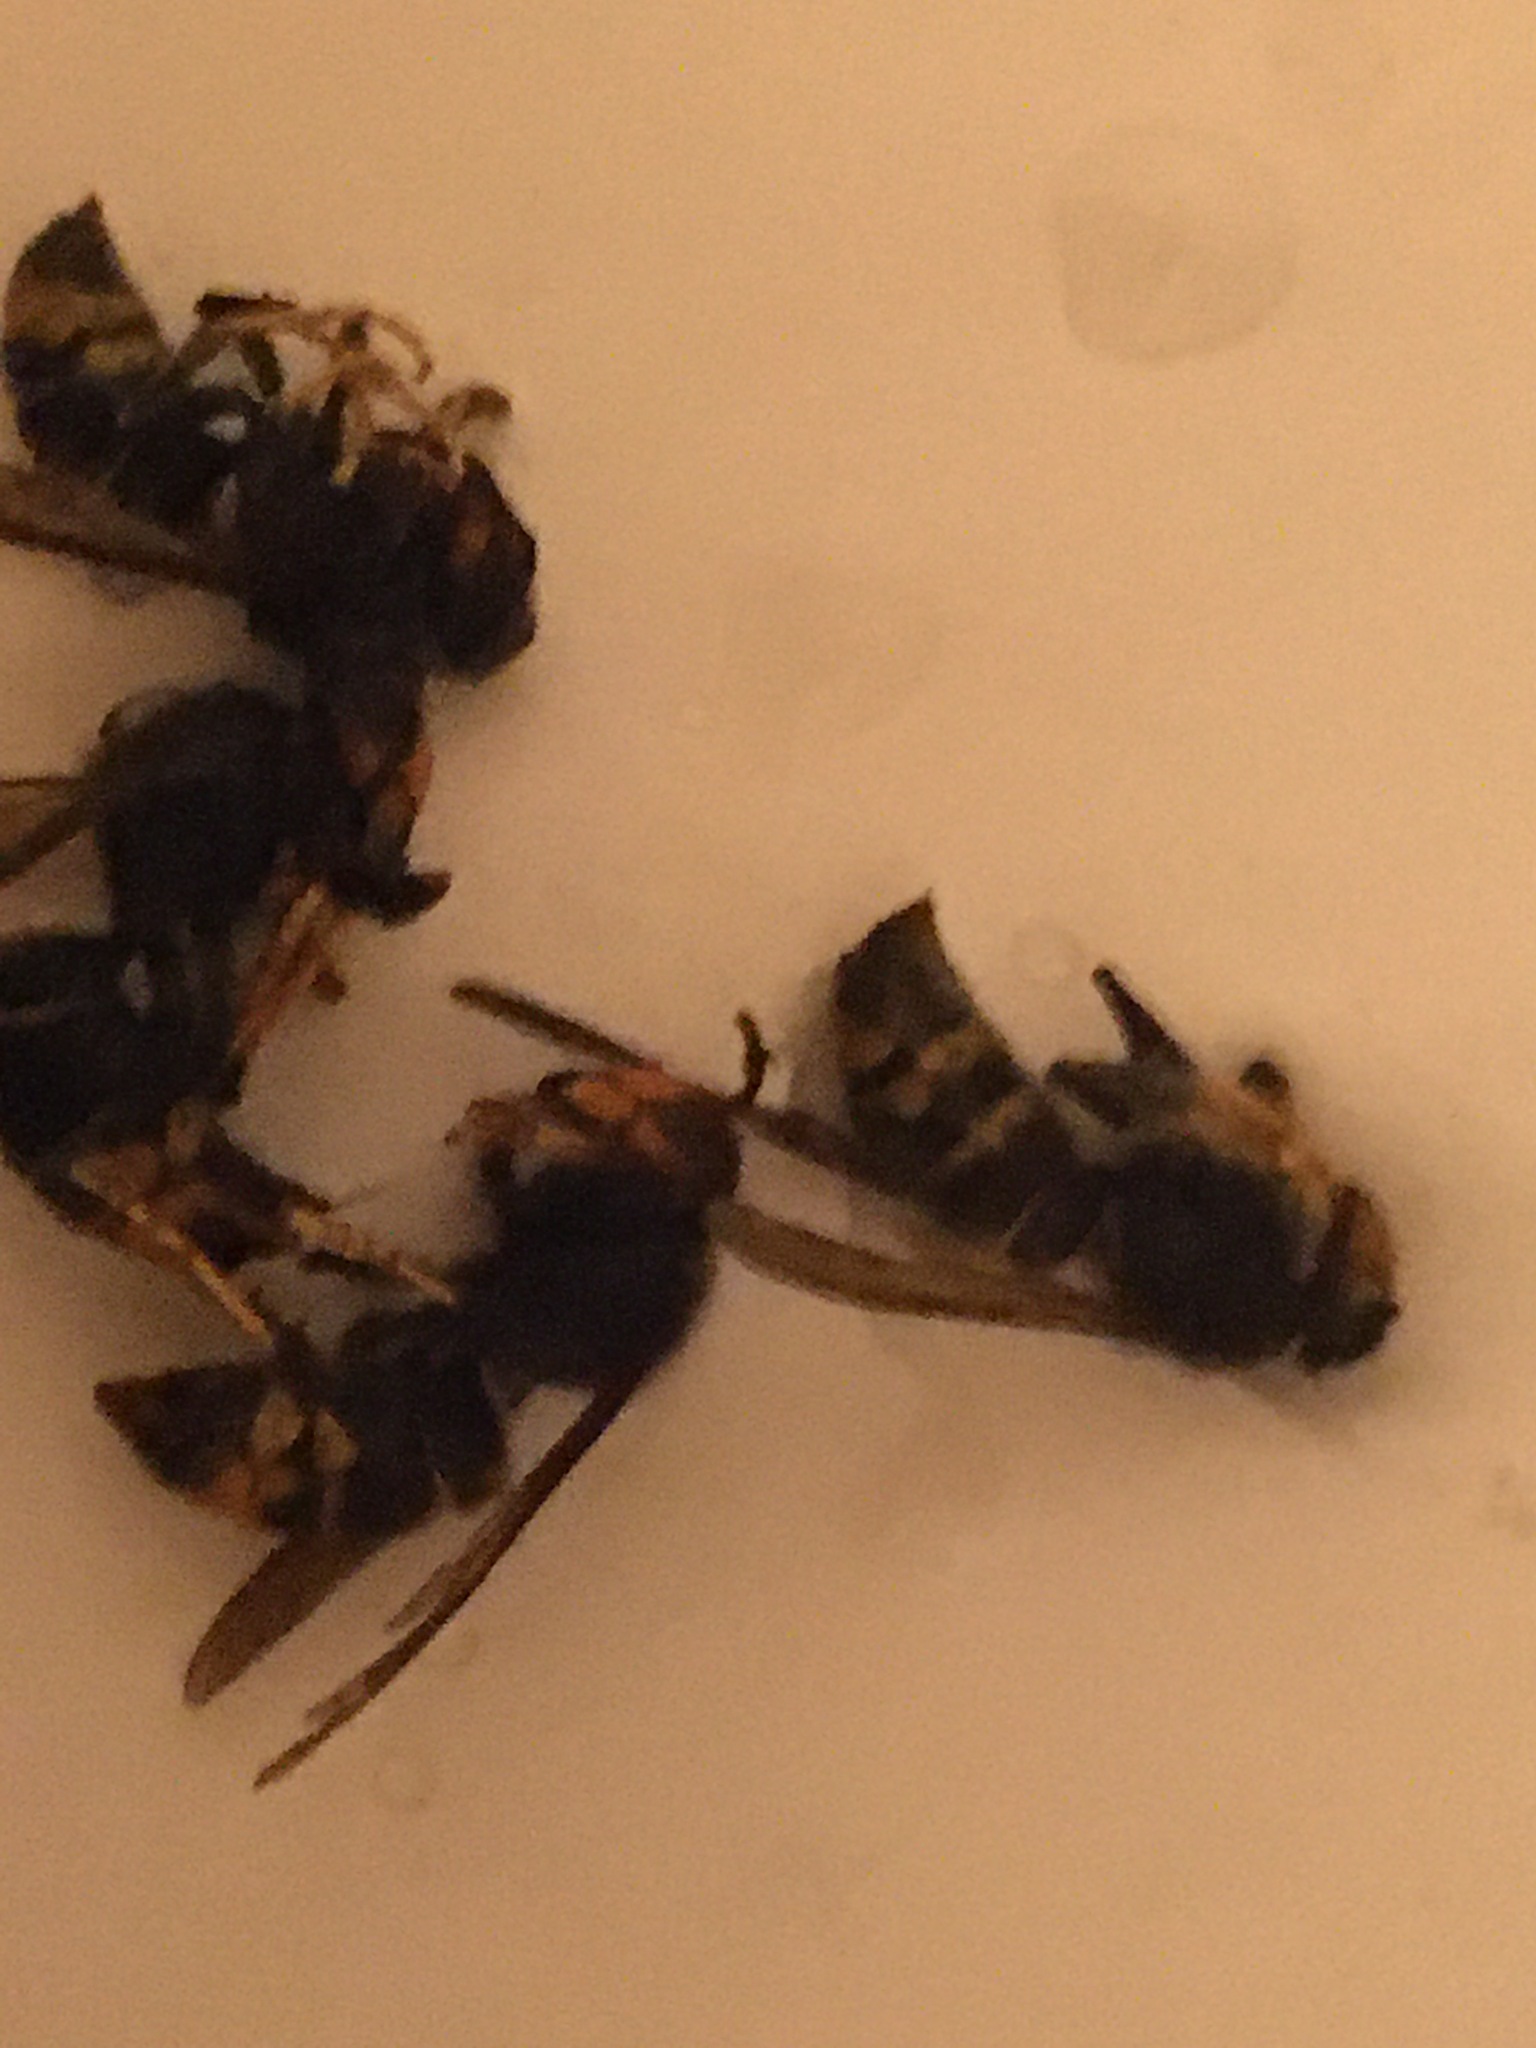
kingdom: Animalia
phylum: Arthropoda
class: Insecta
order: Hymenoptera
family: Vespidae
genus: Vespa
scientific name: Vespa velutina
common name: Asian hornet
